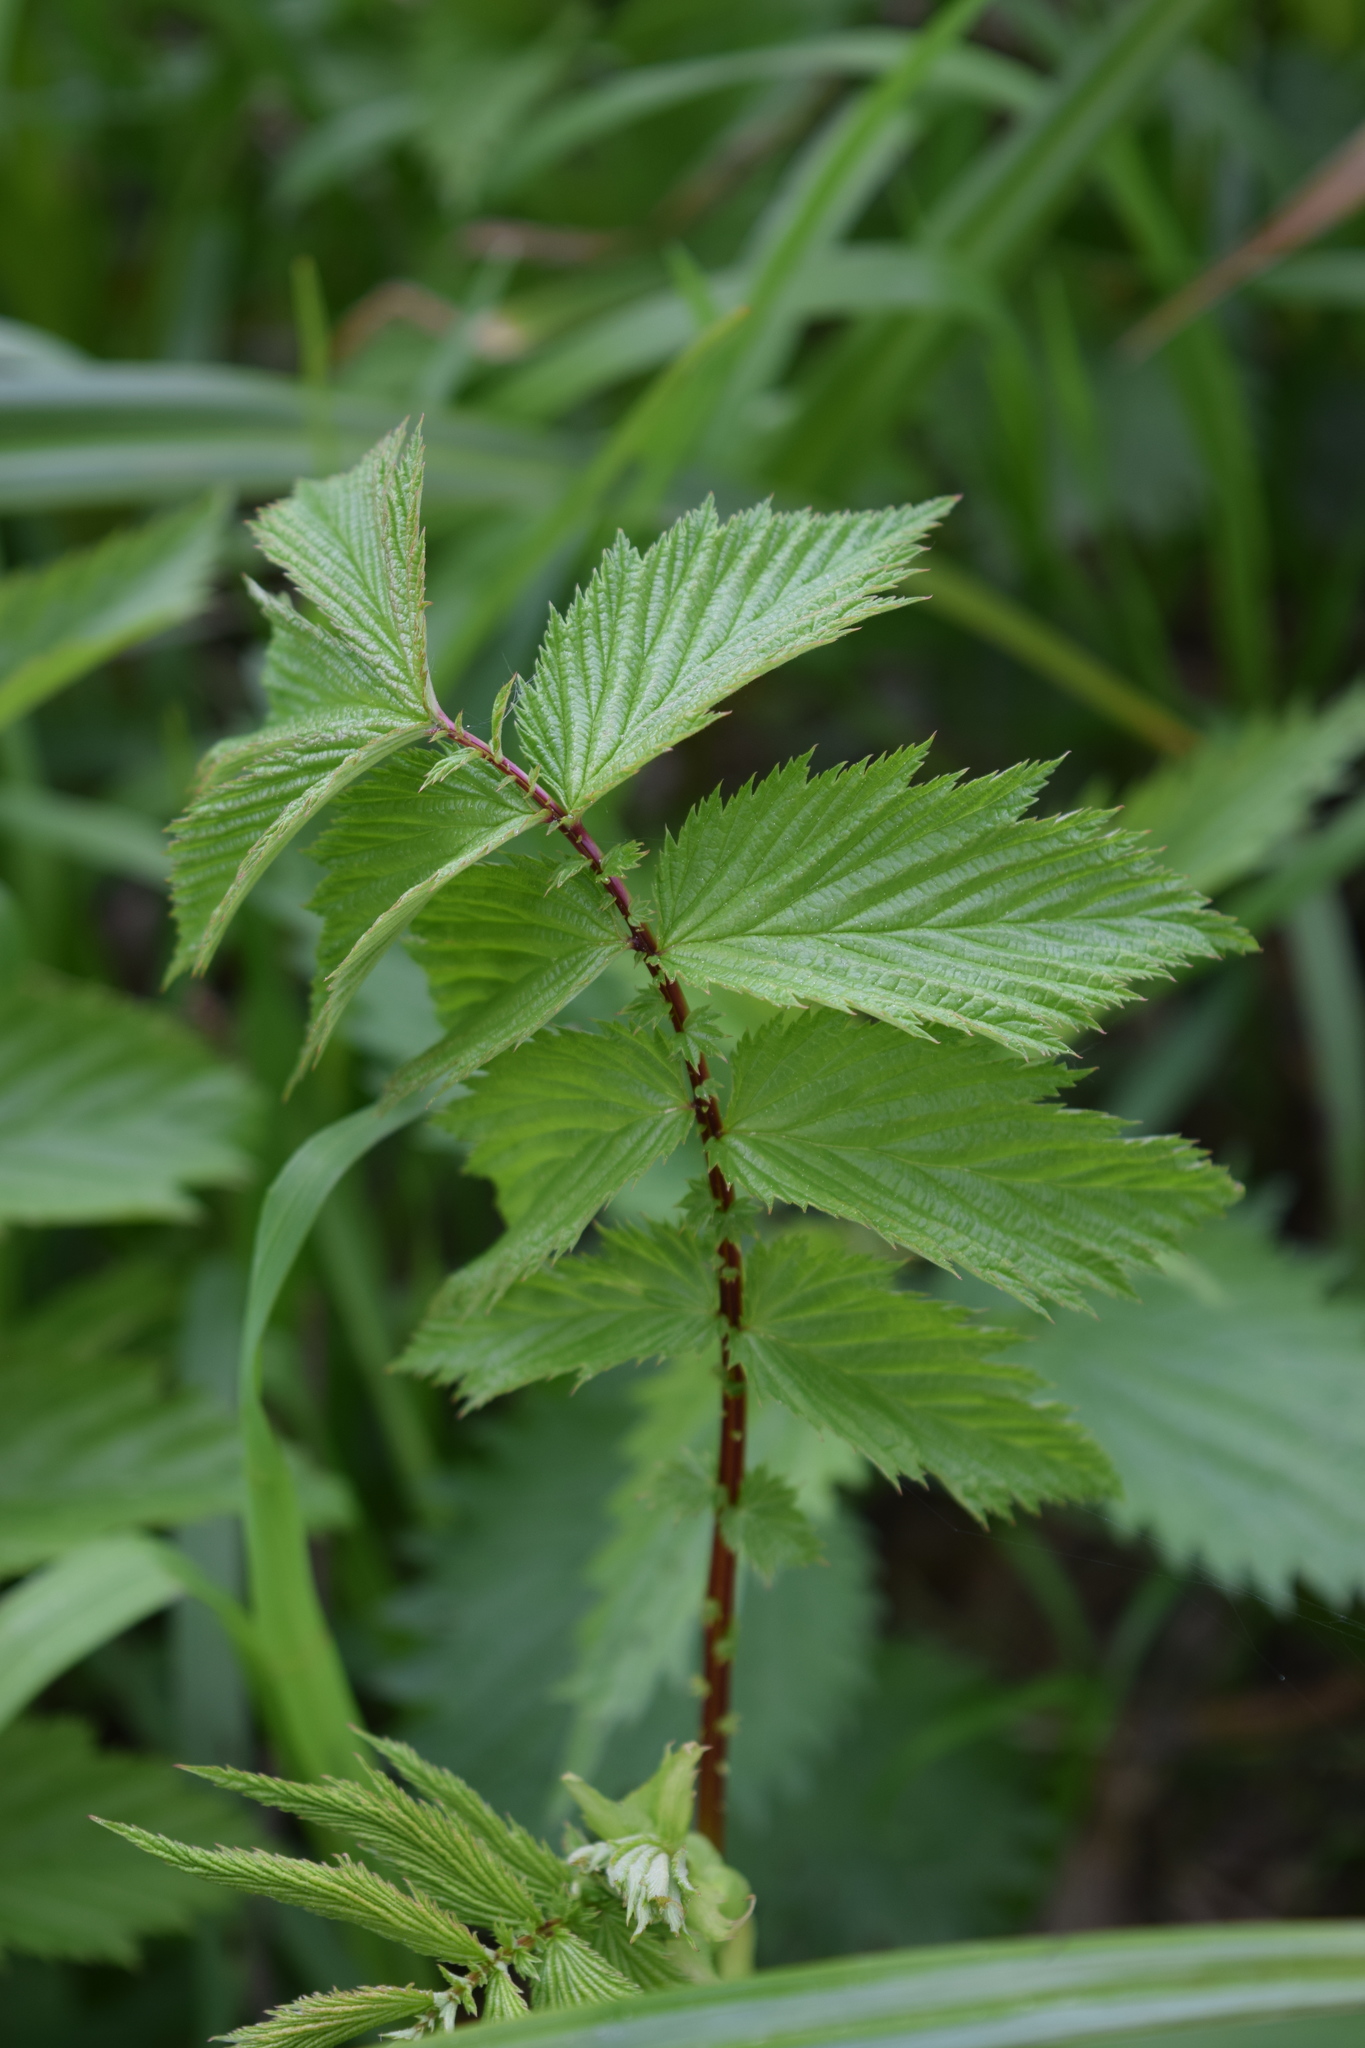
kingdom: Plantae
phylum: Tracheophyta
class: Magnoliopsida
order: Rosales
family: Rosaceae
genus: Filipendula
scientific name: Filipendula ulmaria
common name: Meadowsweet
